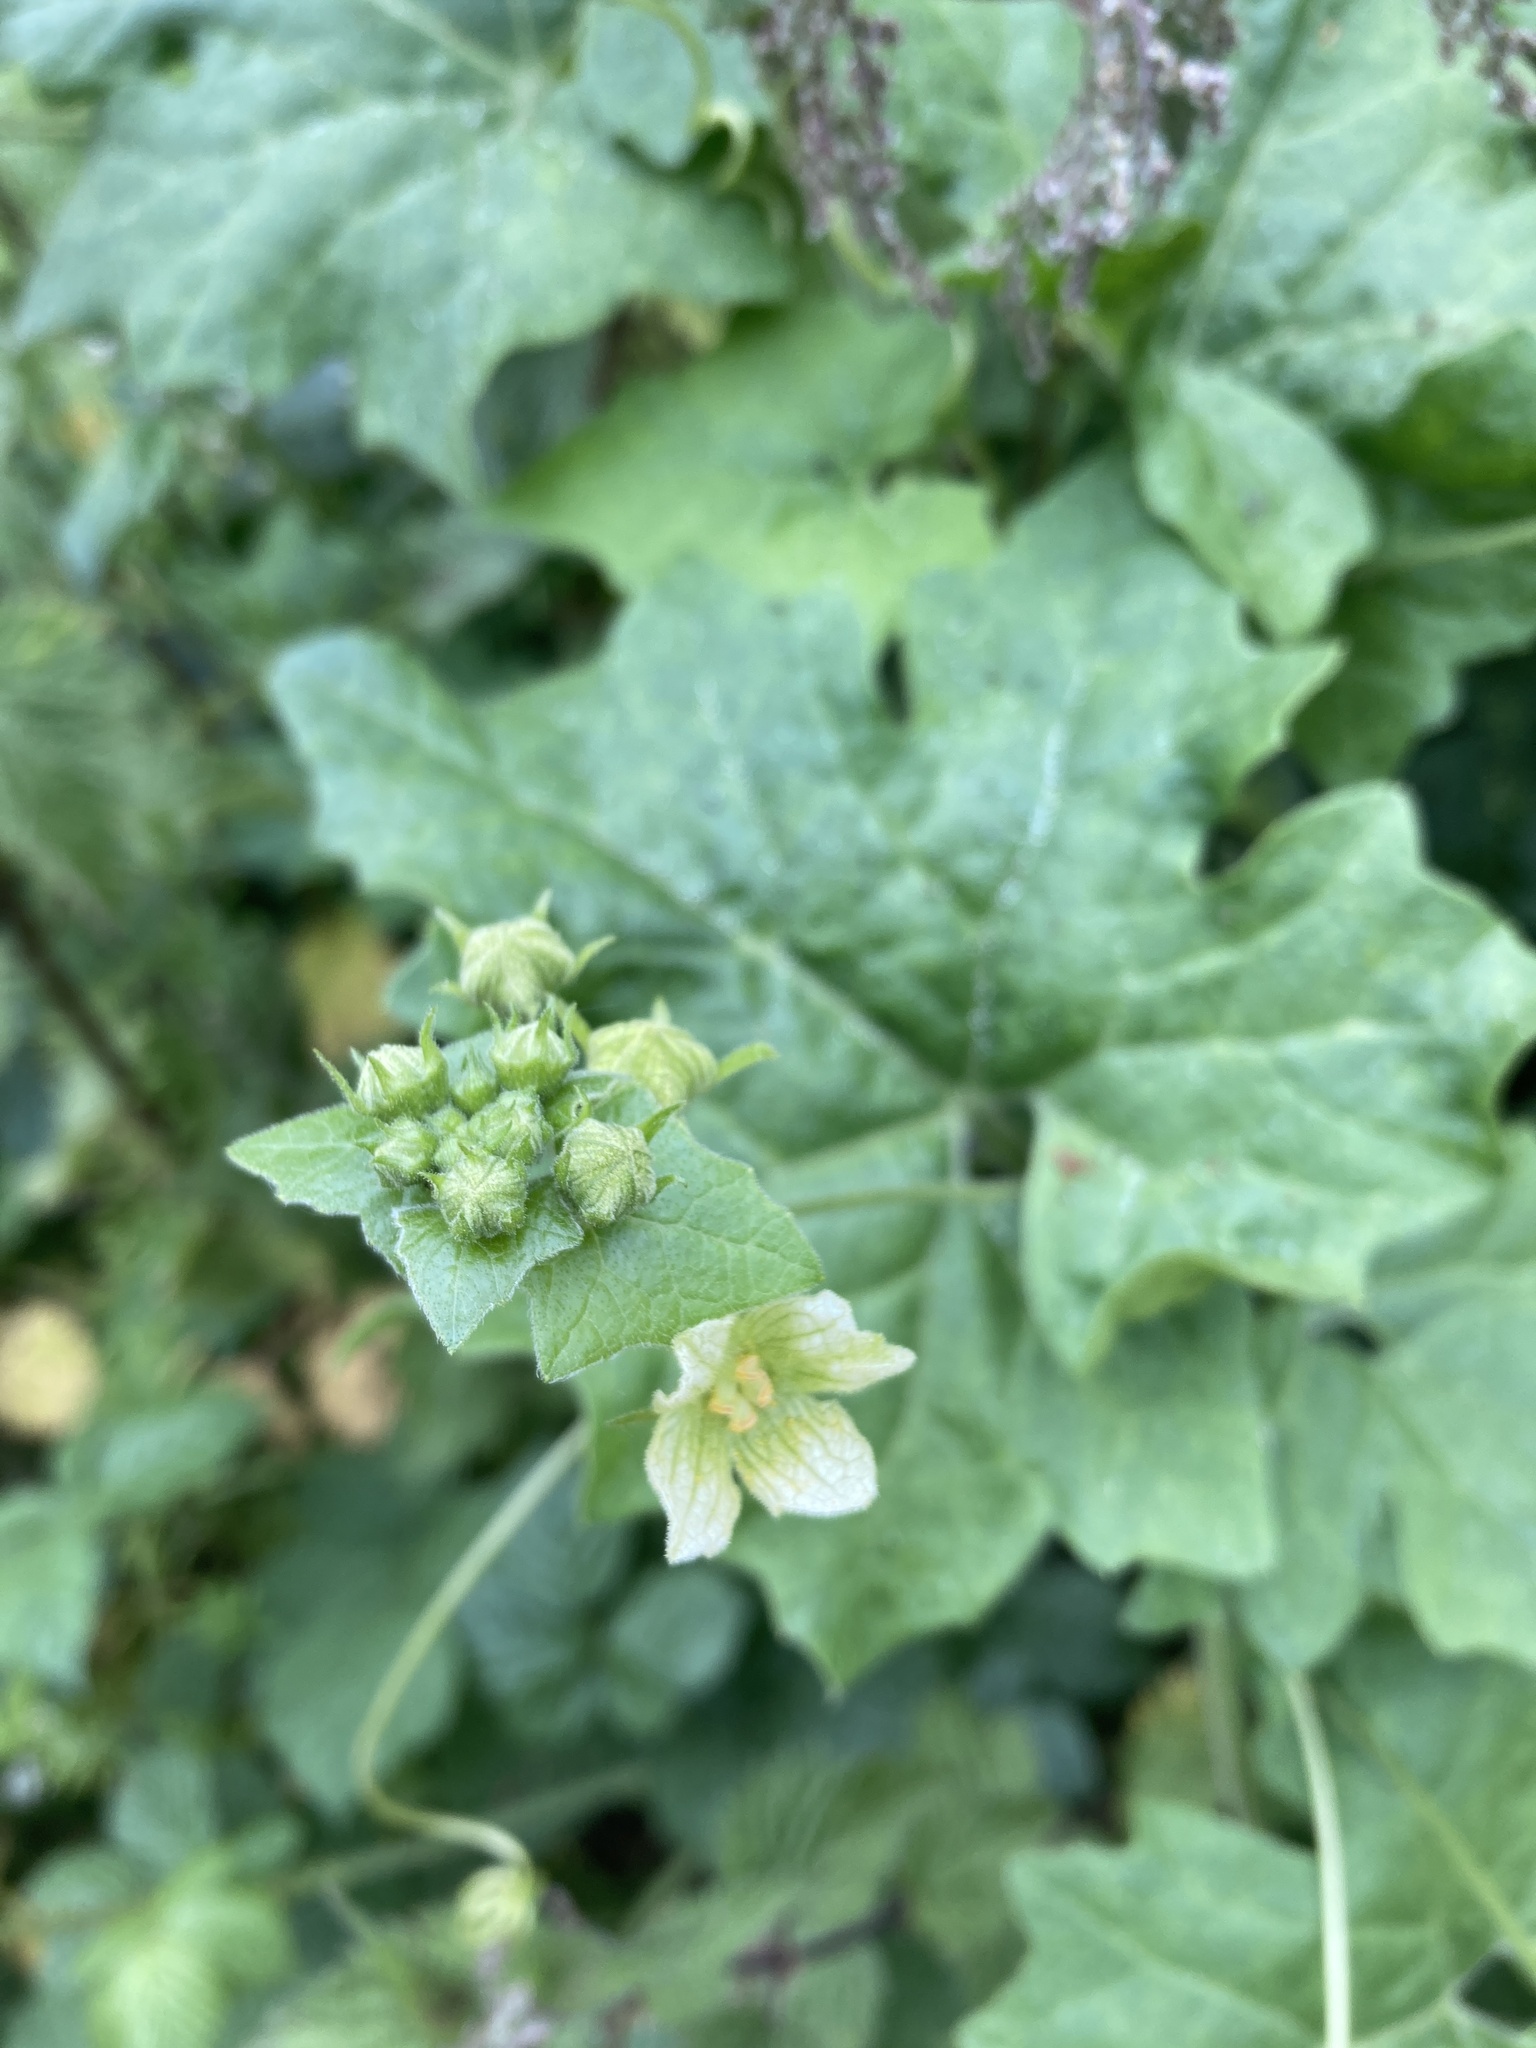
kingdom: Plantae
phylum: Tracheophyta
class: Magnoliopsida
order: Cucurbitales
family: Cucurbitaceae
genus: Bryonia
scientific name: Bryonia cretica
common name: Cretan bryony
